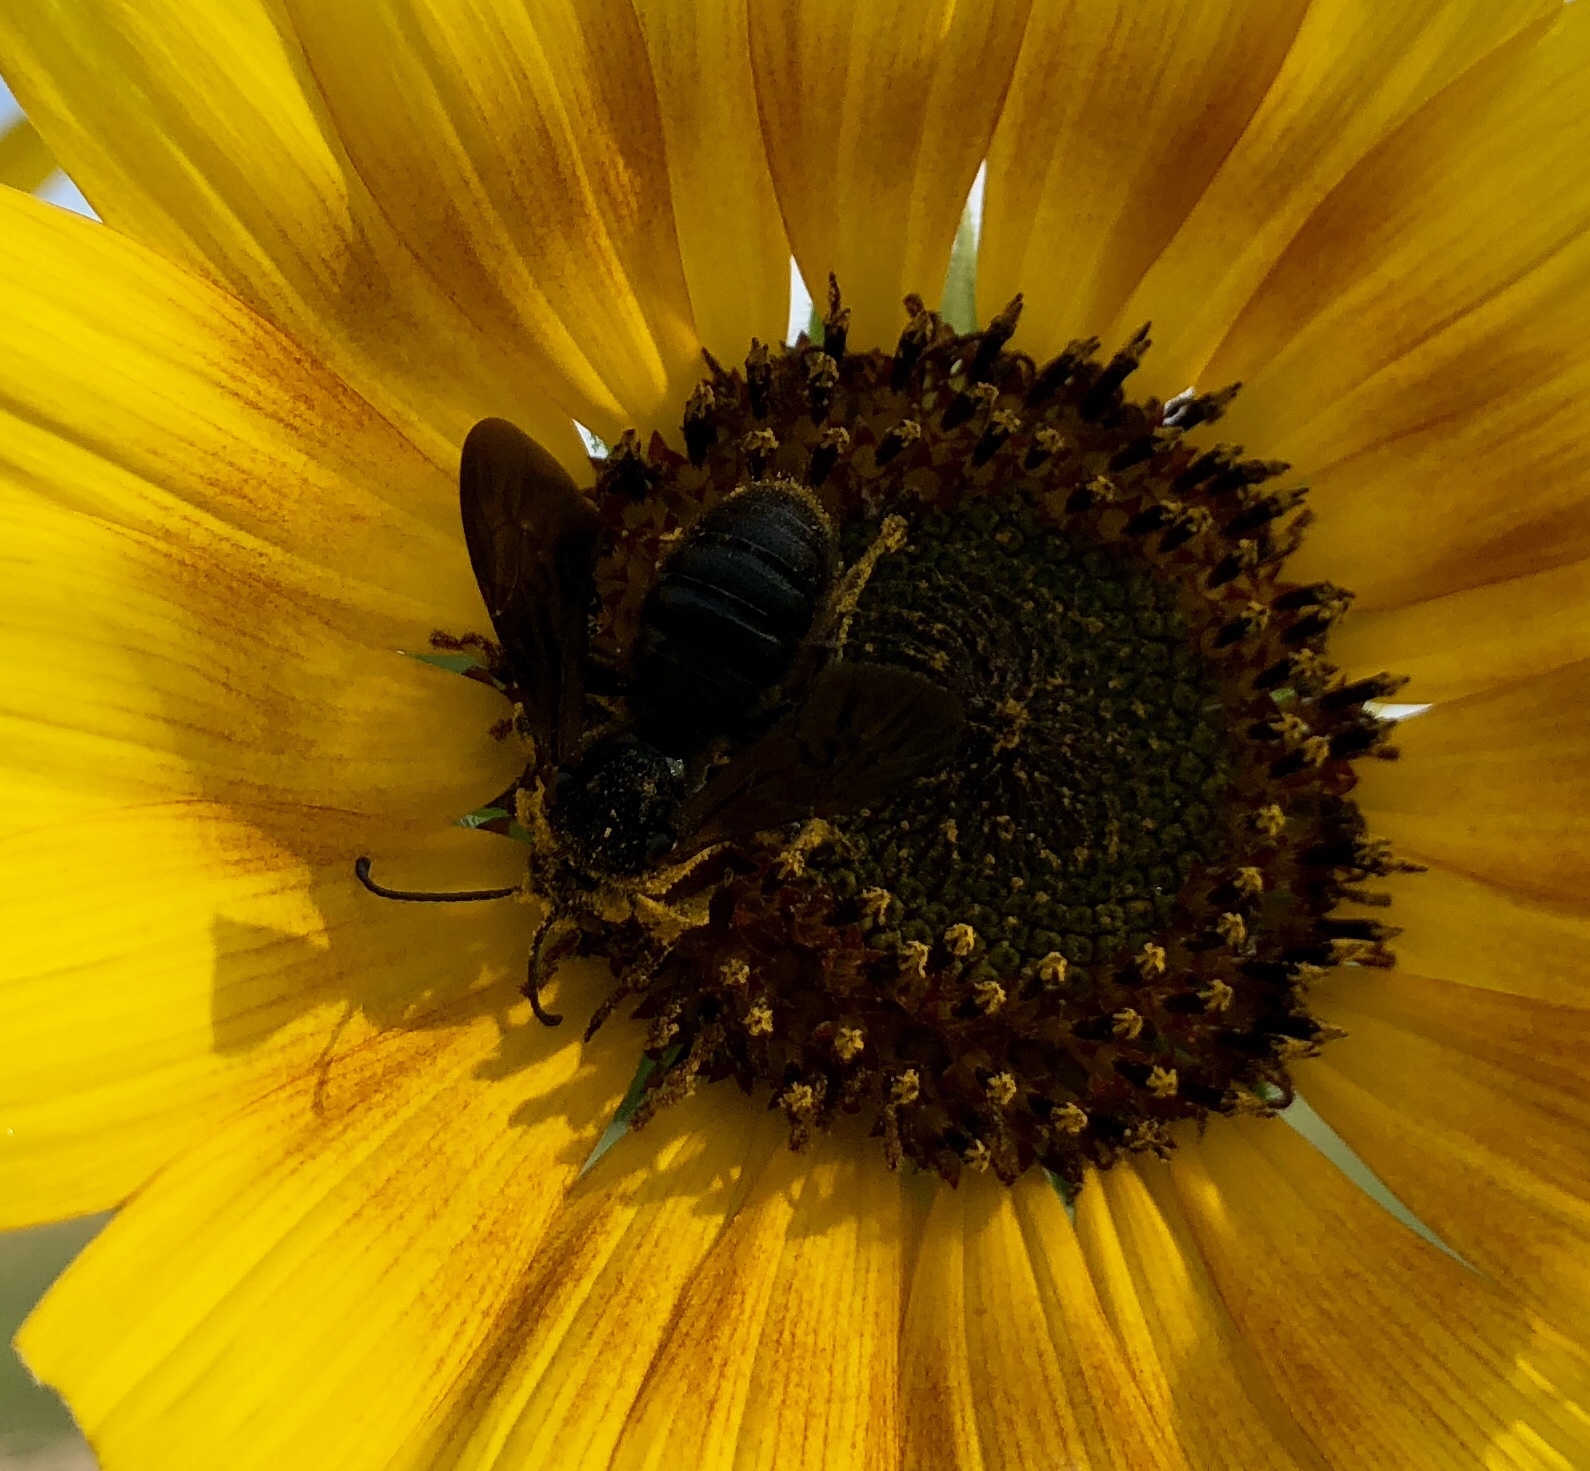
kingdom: Animalia
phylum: Arthropoda
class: Insecta
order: Hymenoptera
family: Halictidae
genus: Dieunomia
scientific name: Dieunomia heteropoda
